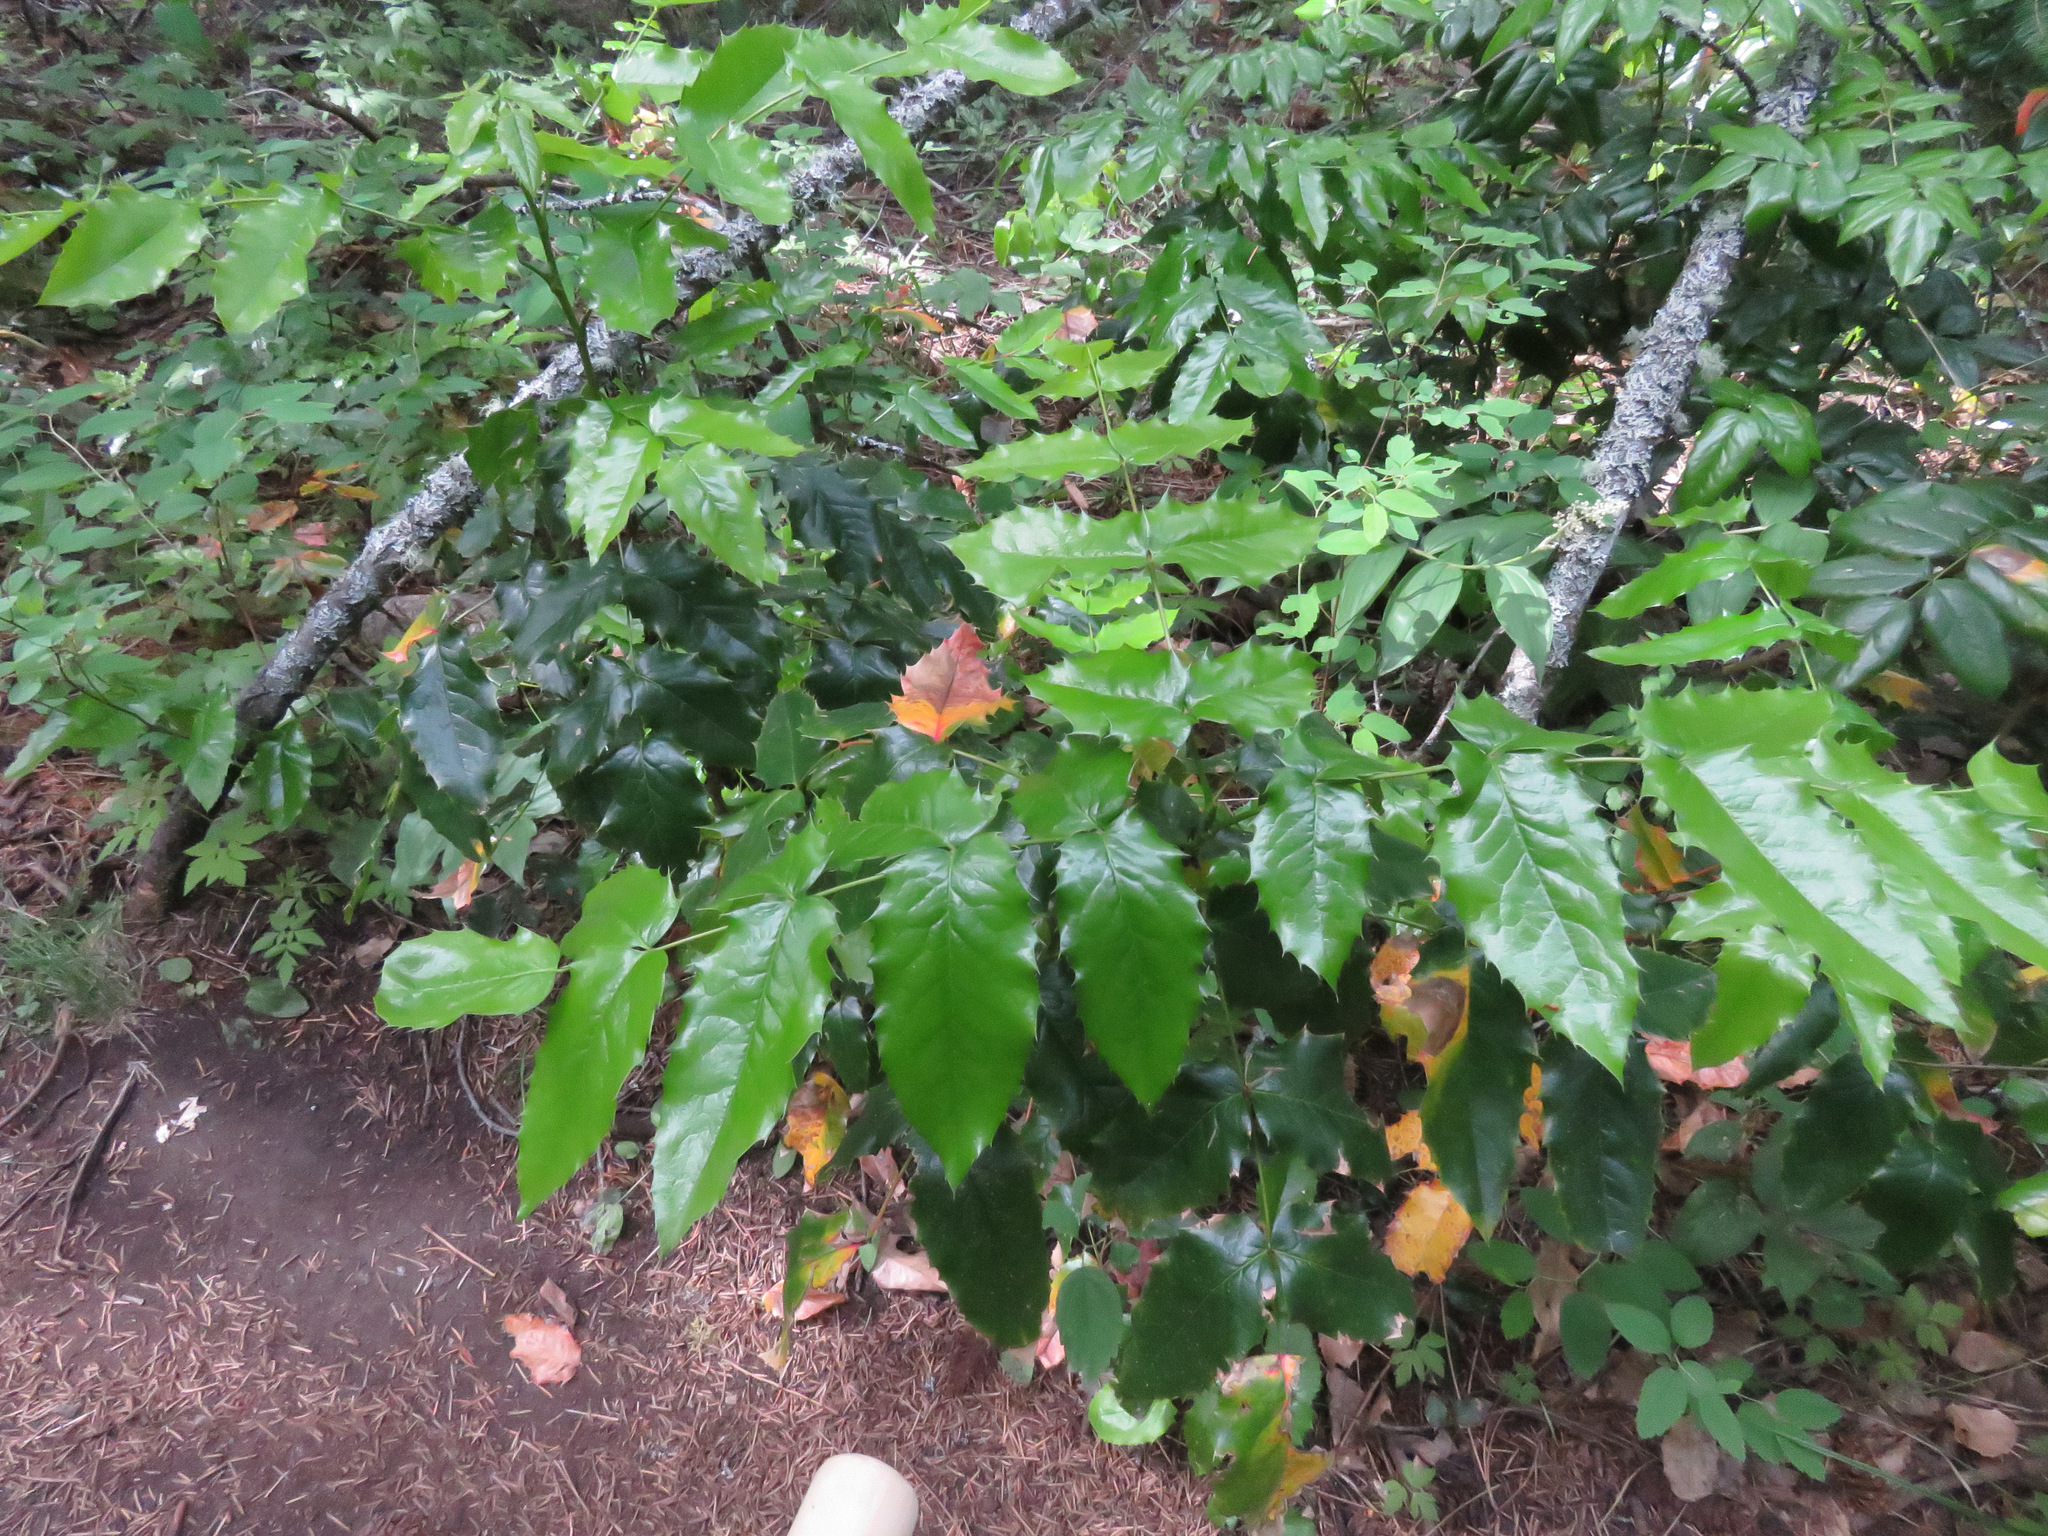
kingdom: Plantae
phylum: Tracheophyta
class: Magnoliopsida
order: Ranunculales
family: Berberidaceae
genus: Mahonia
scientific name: Mahonia aquifolium
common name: Oregon-grape
